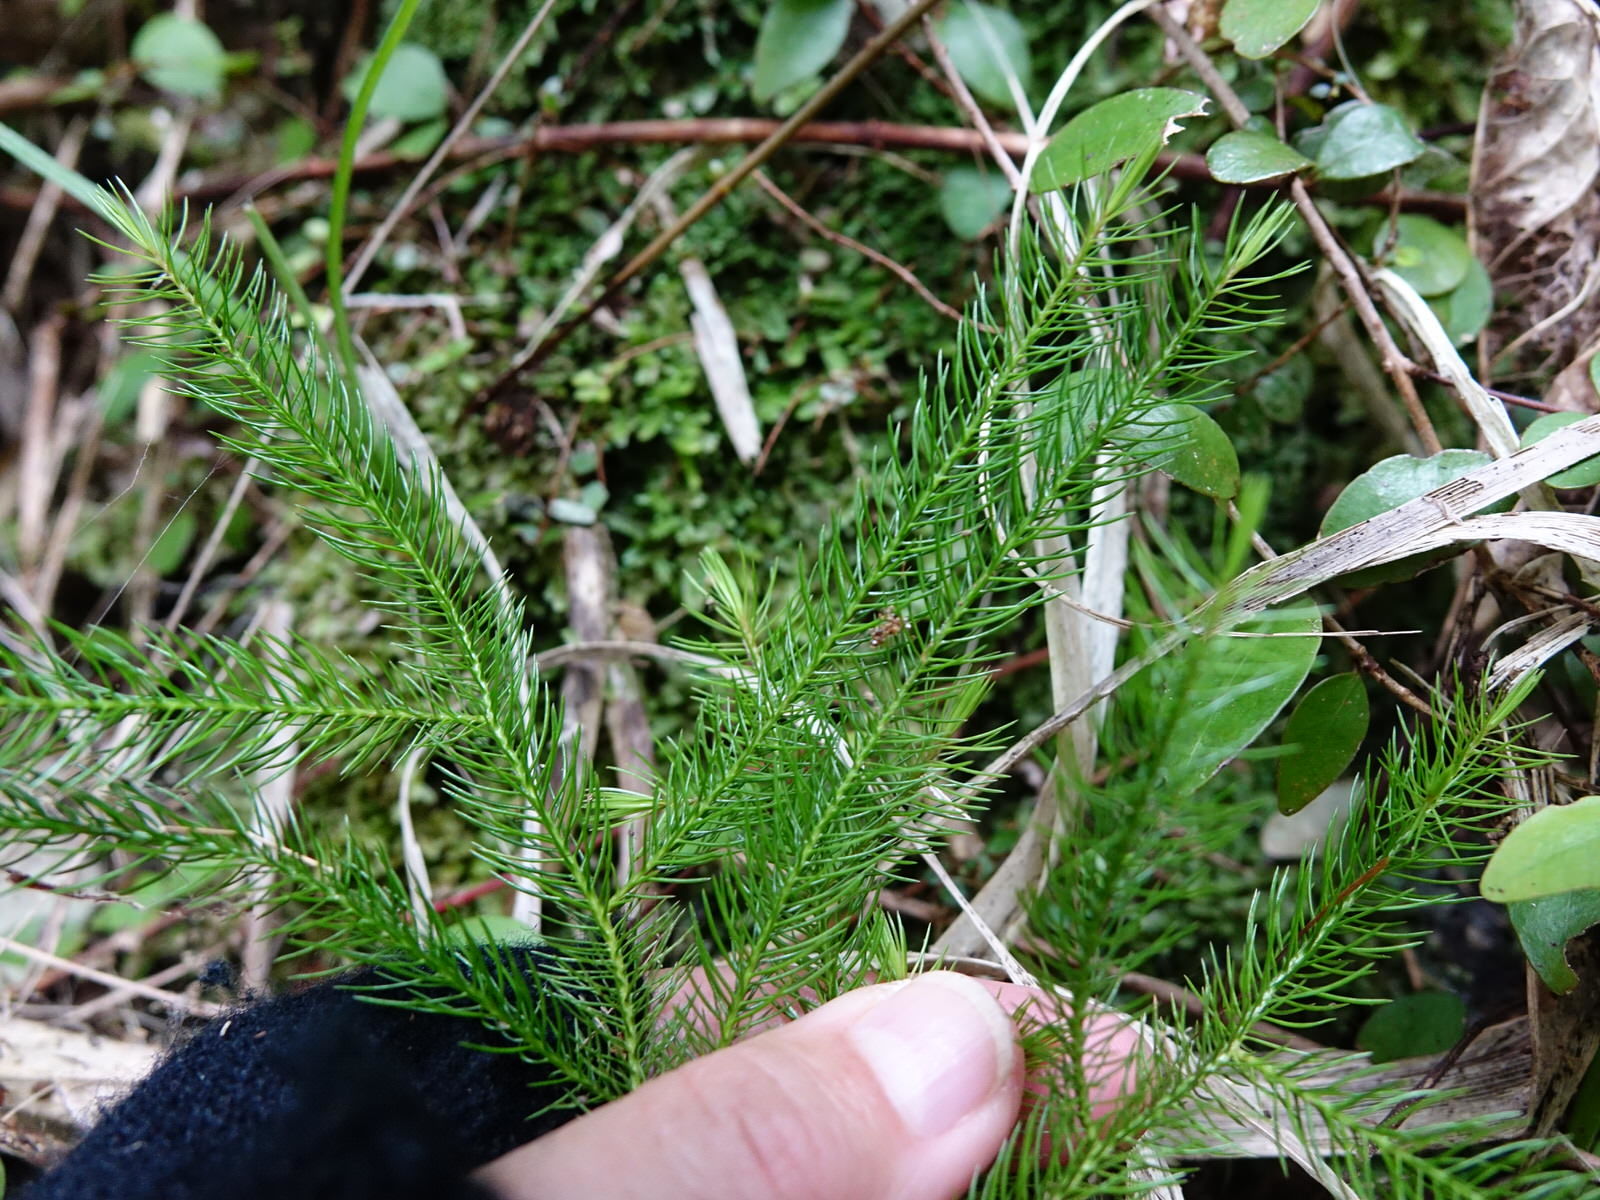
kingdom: Plantae
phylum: Tracheophyta
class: Pinopsida
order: Pinales
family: Podocarpaceae
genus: Dacrydium
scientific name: Dacrydium cupressinum
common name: Red pine
